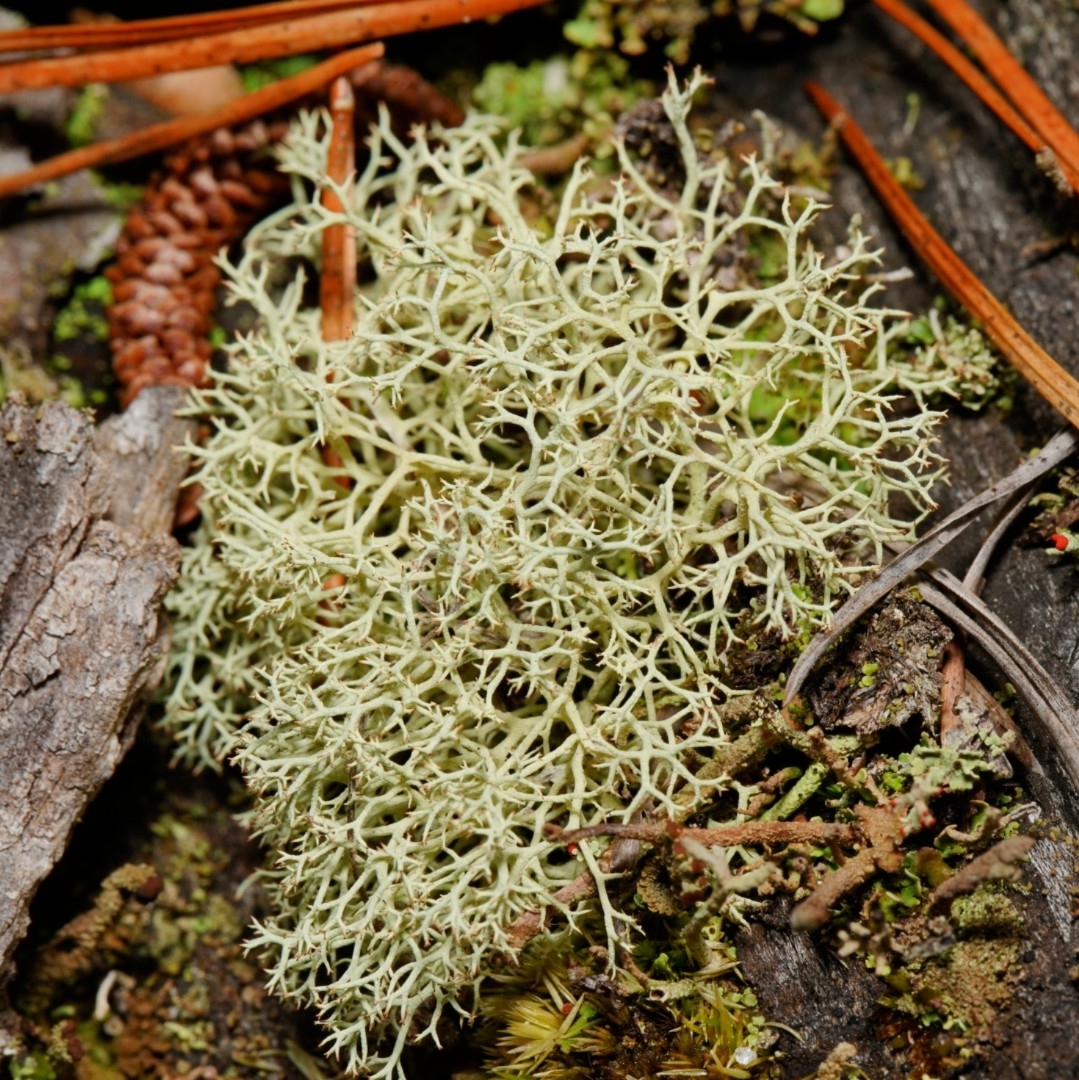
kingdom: Fungi
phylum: Ascomycota
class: Lecanoromycetes
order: Lecanorales
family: Cladoniaceae
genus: Cladonia
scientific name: Cladonia subtenuis
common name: Dixie reindeer lichen
